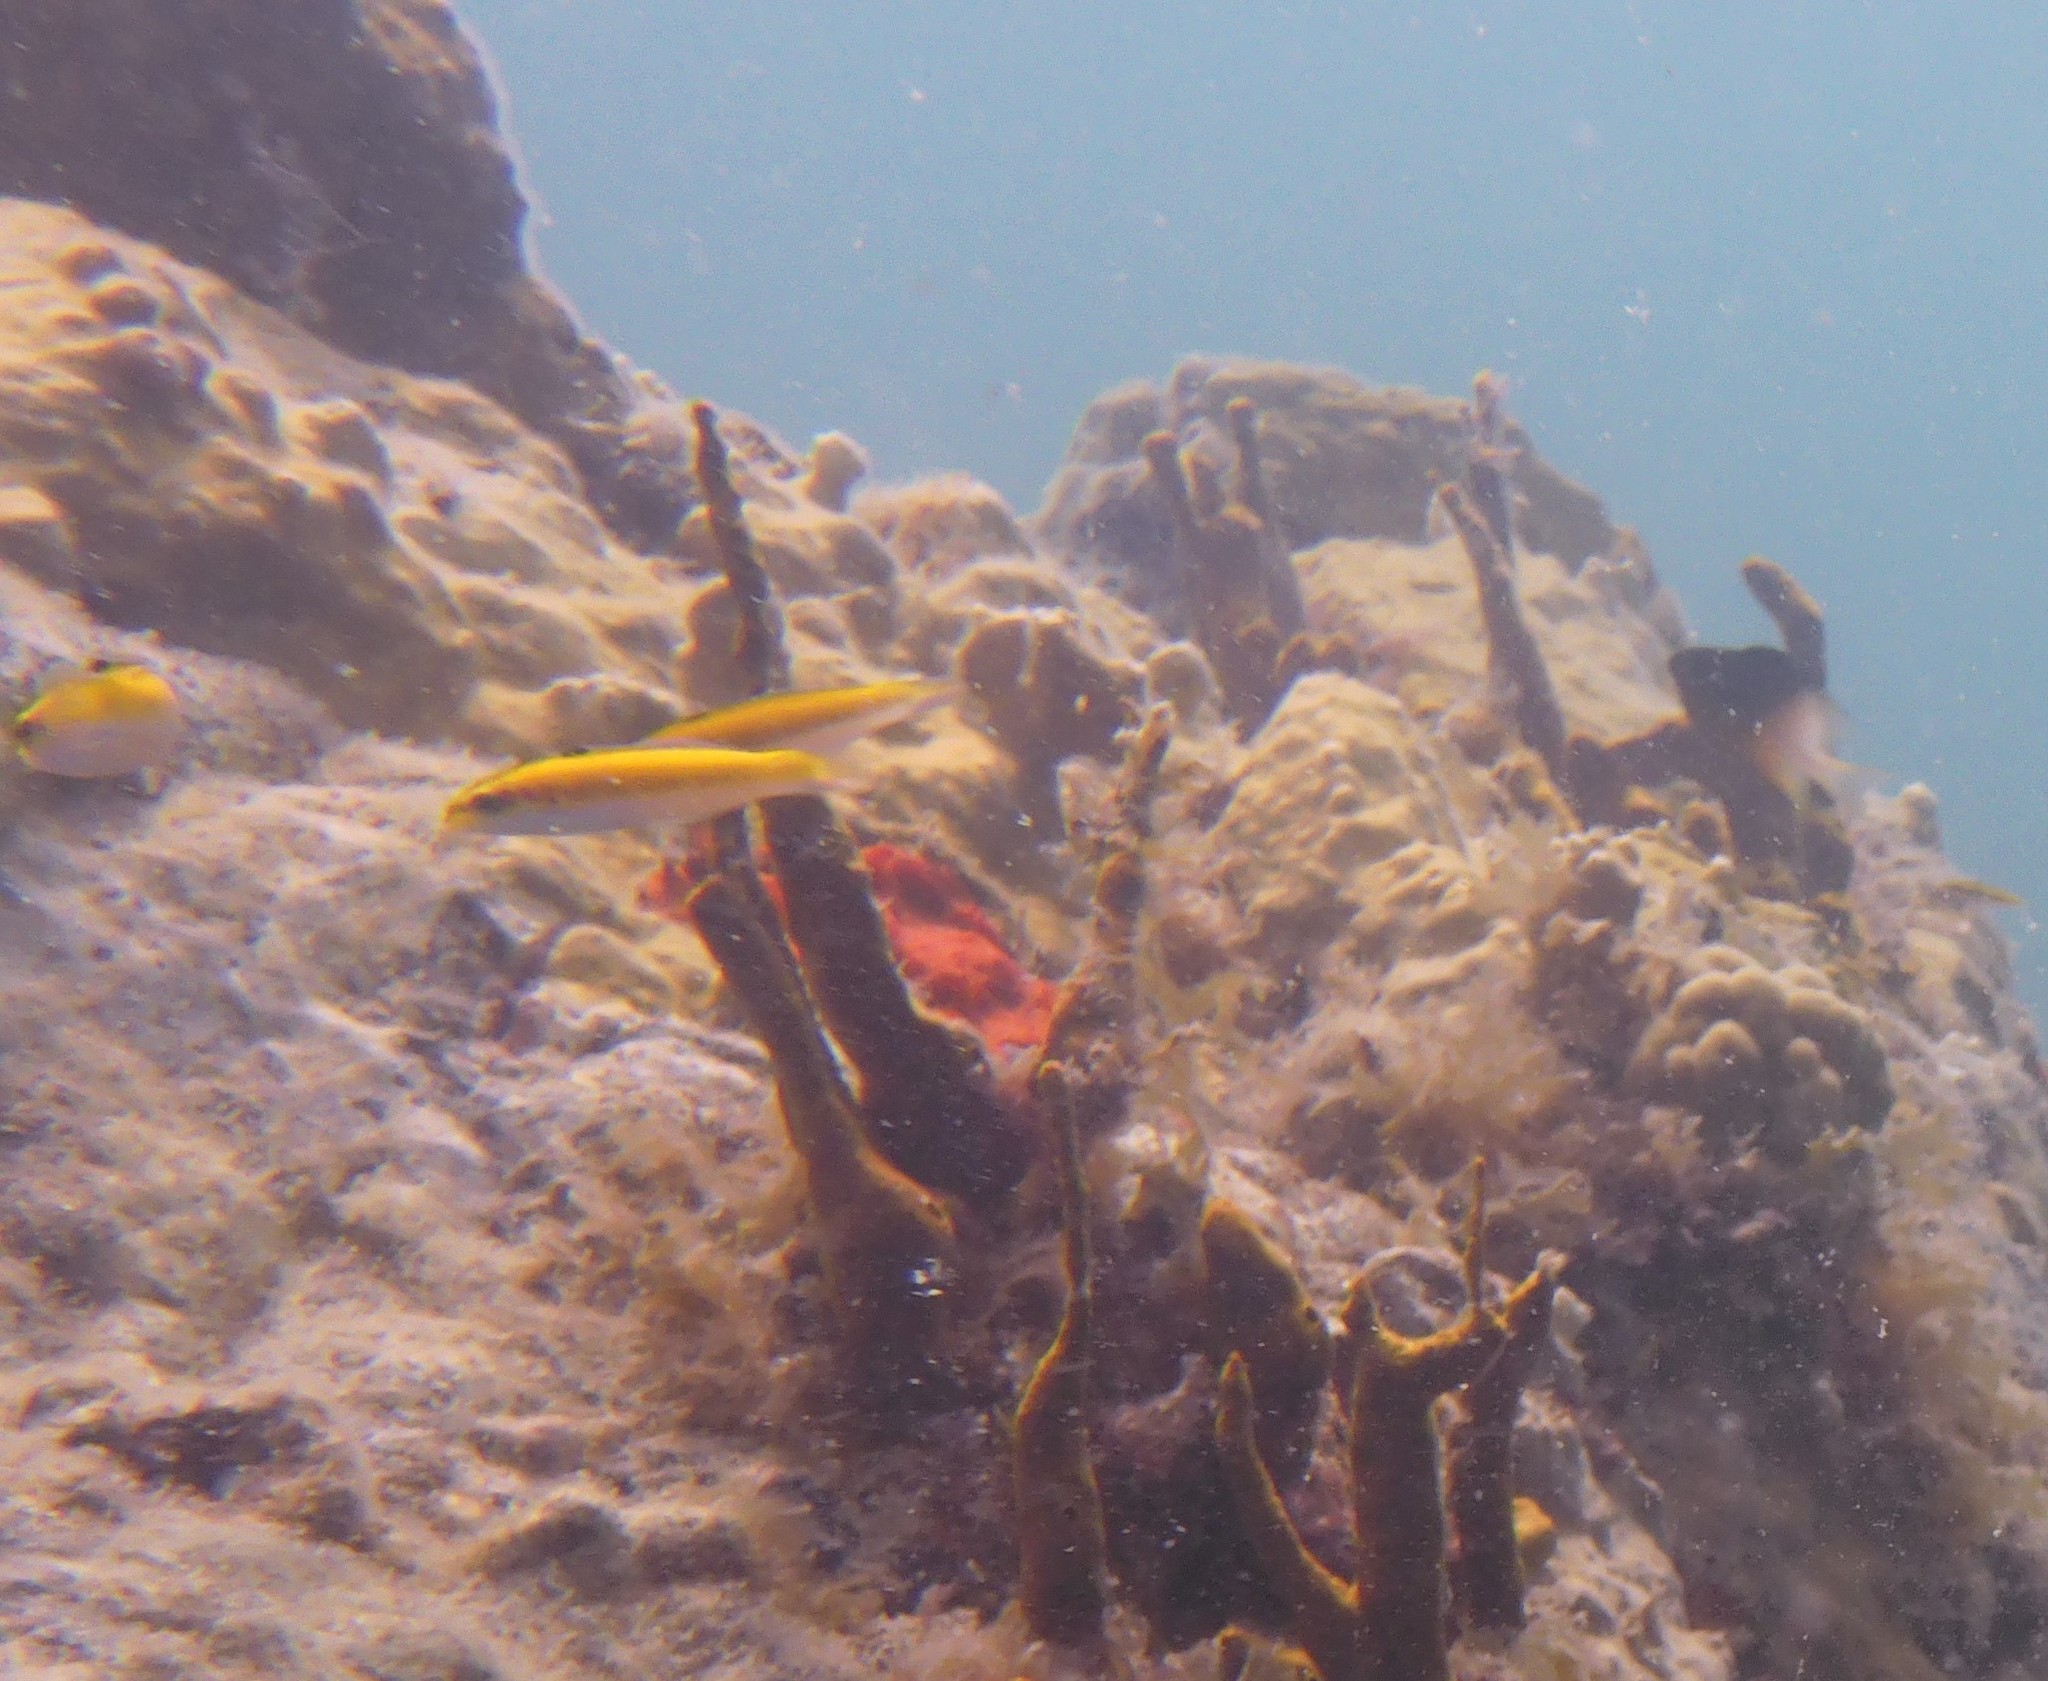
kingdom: Animalia
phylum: Chordata
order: Perciformes
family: Labridae
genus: Thalassoma
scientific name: Thalassoma bifasciatum
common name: Bluehead wrasse
